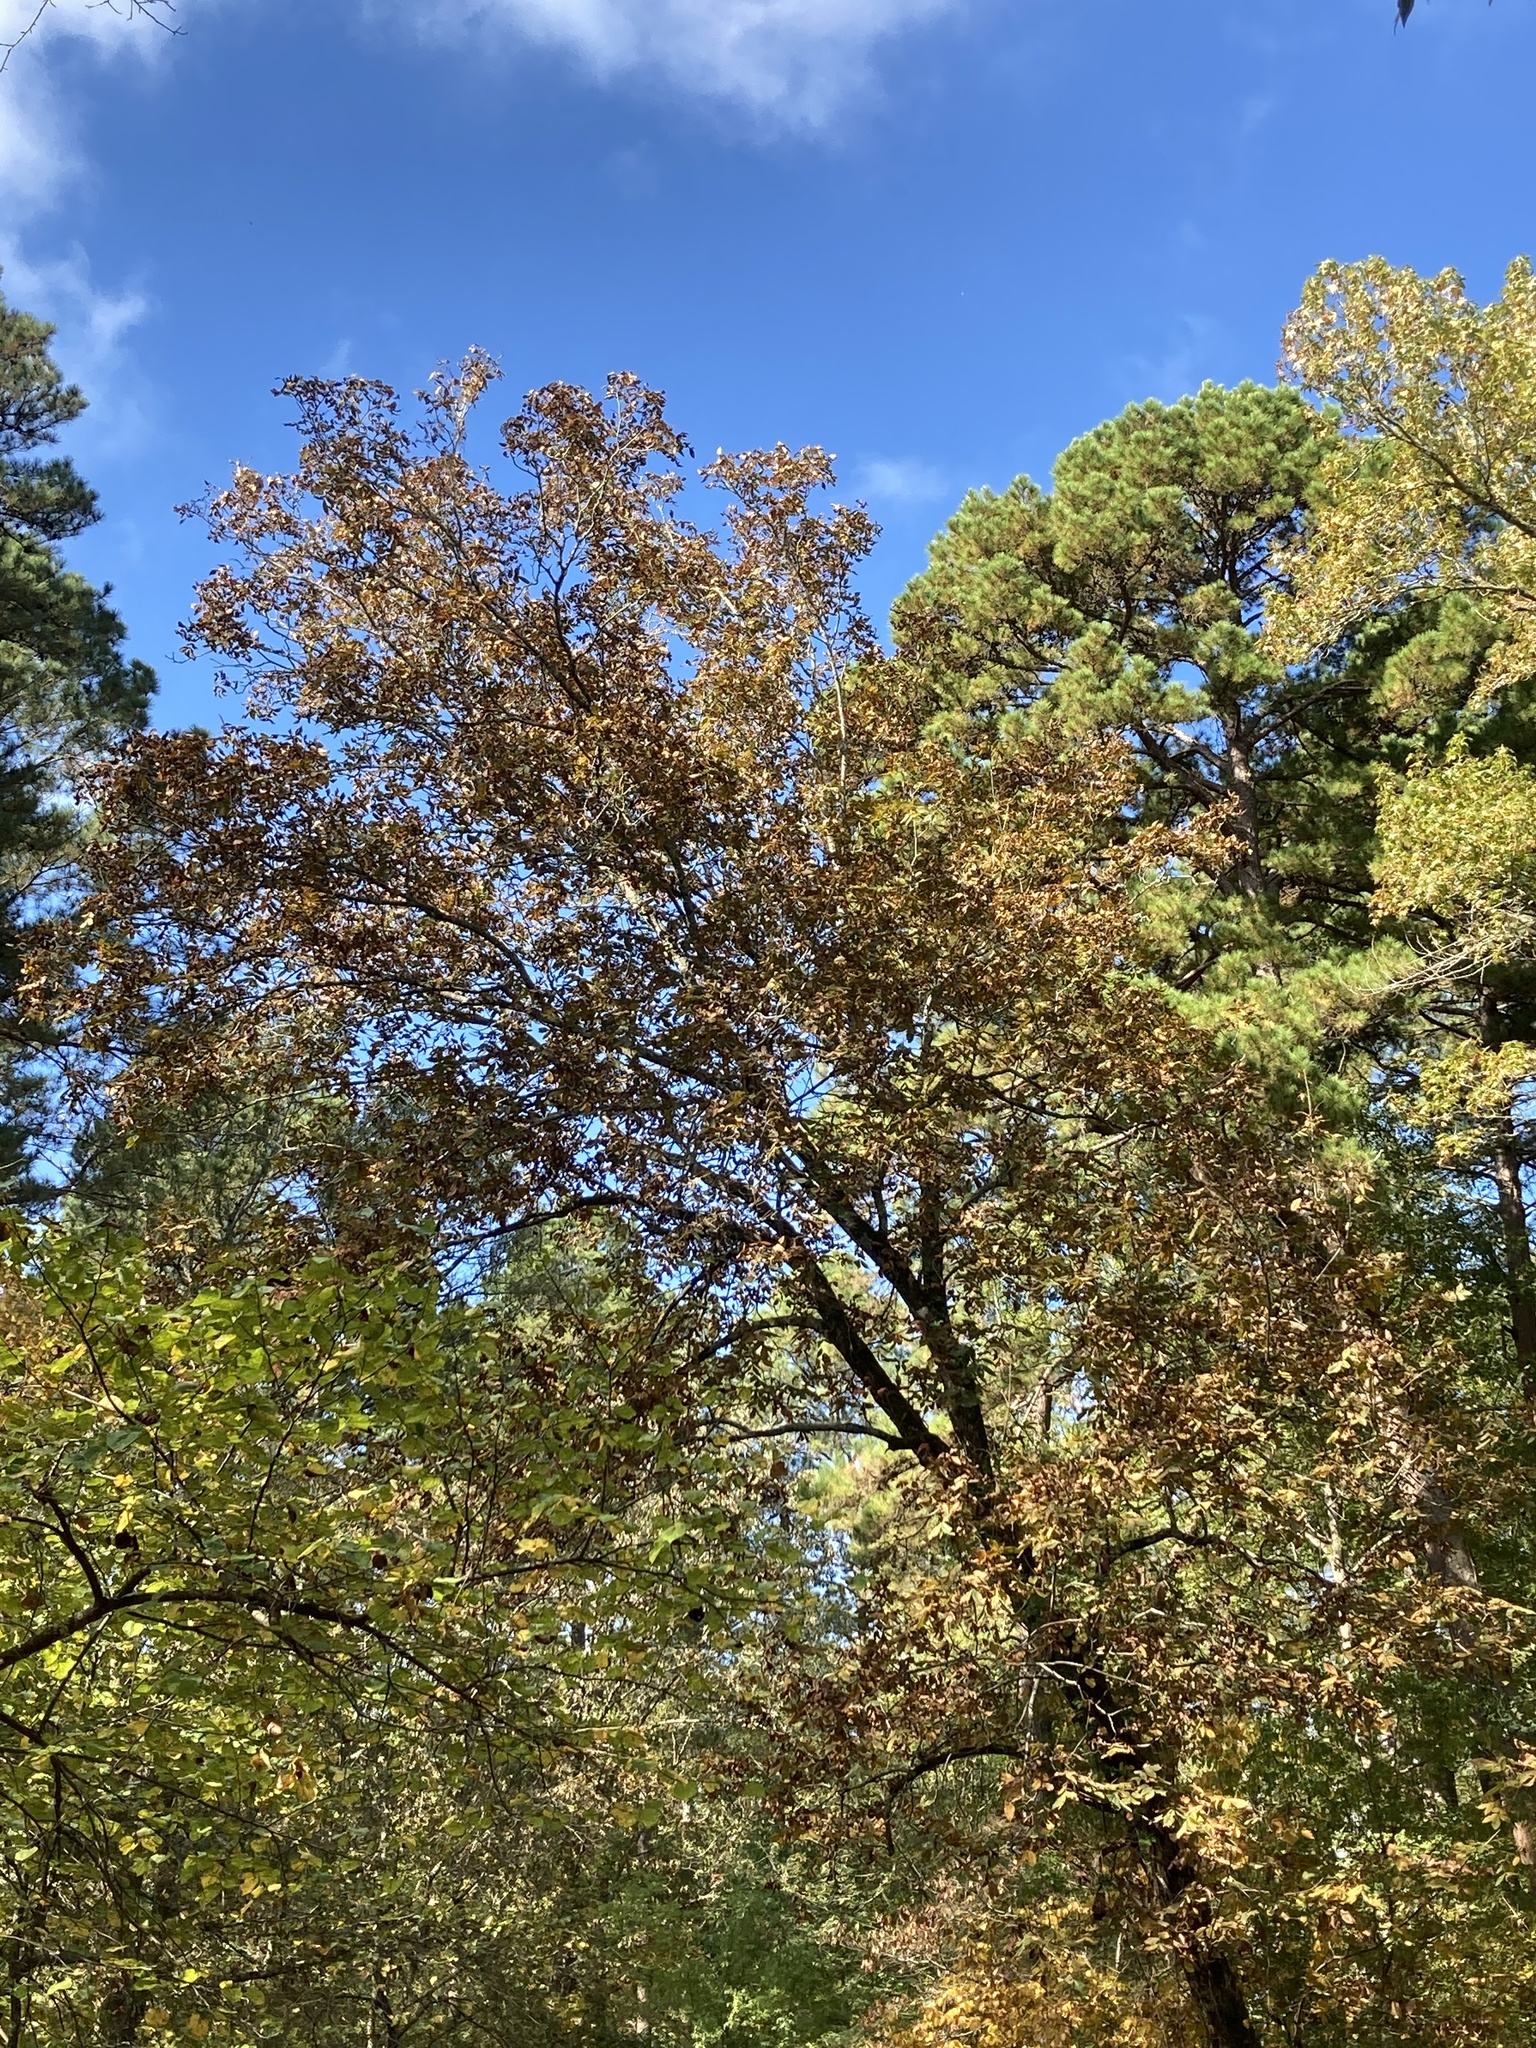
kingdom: Plantae
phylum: Tracheophyta
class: Magnoliopsida
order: Fagales
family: Juglandaceae
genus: Carya
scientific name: Carya alba
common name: Mockernut hickory
